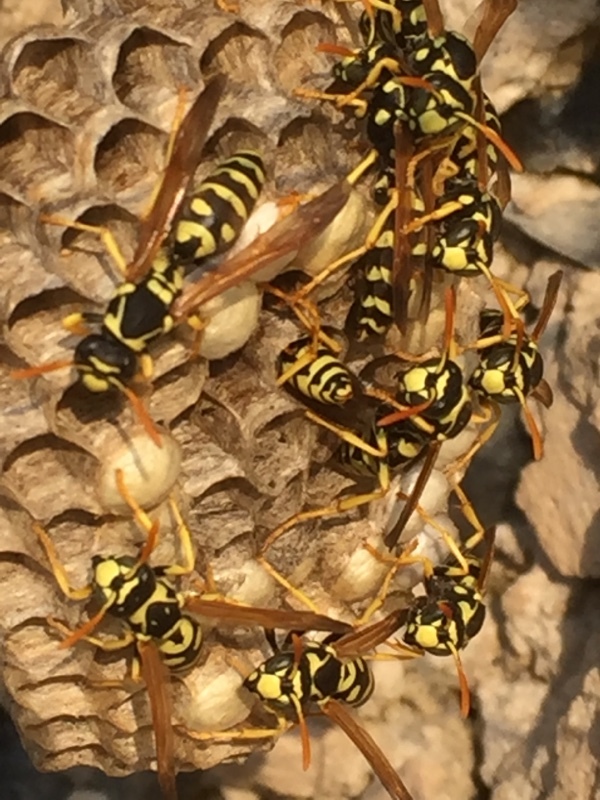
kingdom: Animalia
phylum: Arthropoda
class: Insecta
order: Hymenoptera
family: Eumenidae
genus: Polistes
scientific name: Polistes gallicus
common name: Paper wasp
